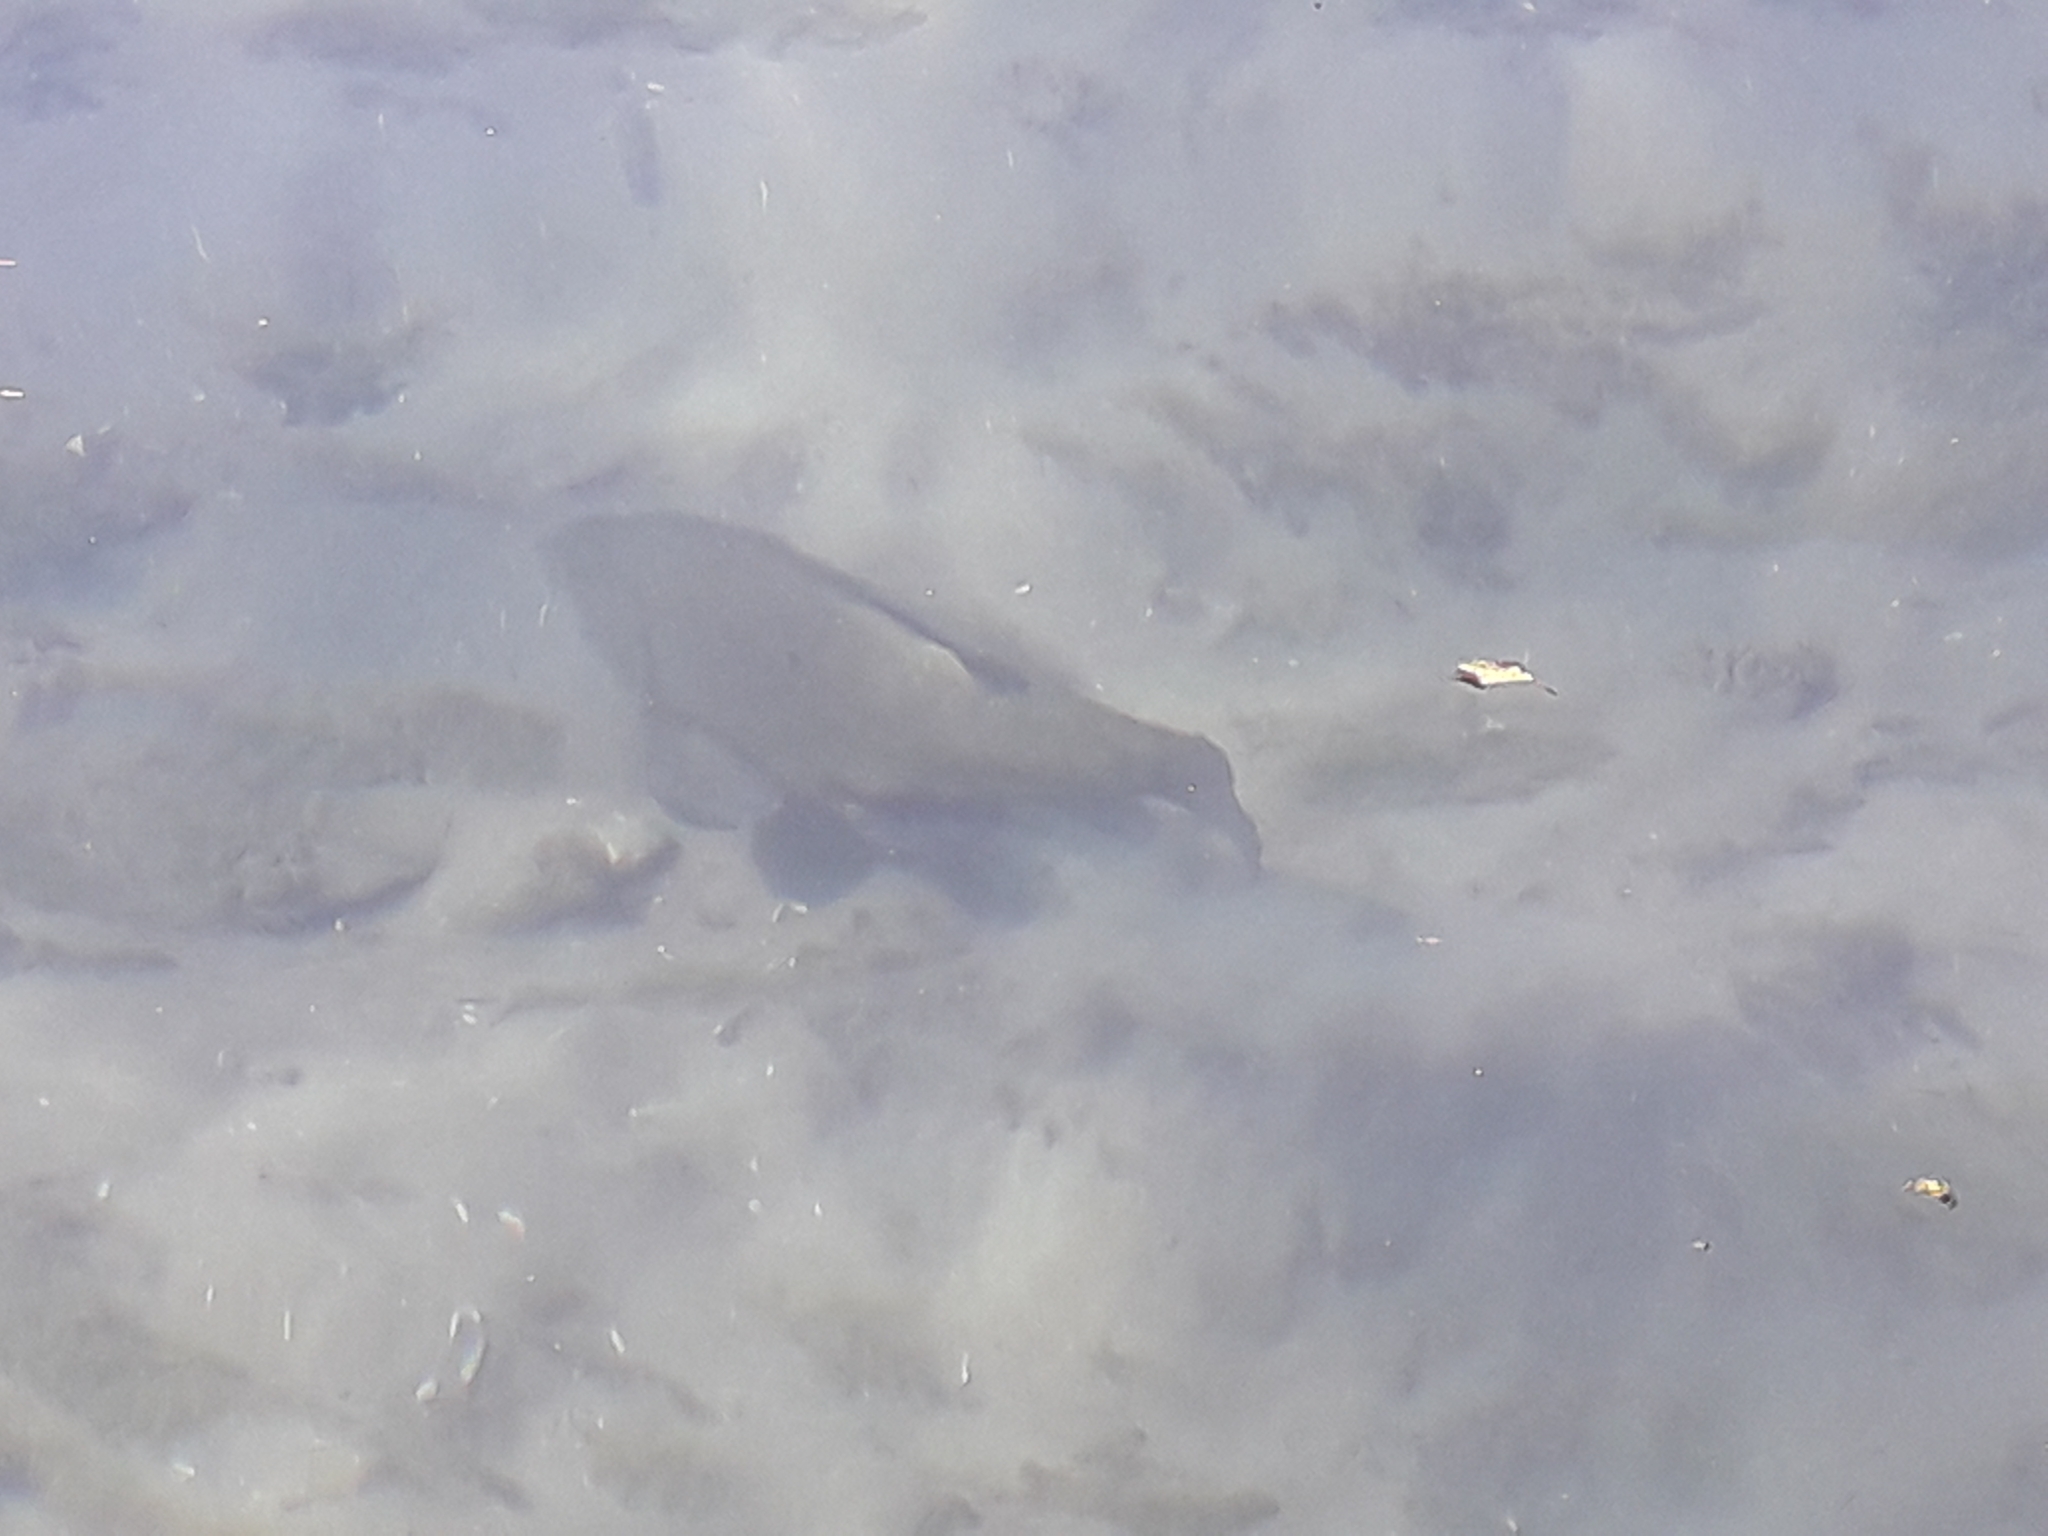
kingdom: Animalia
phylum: Chordata
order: Cypriniformes
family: Cyprinidae
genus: Cyprinus
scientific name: Cyprinus carpio
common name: Common carp
